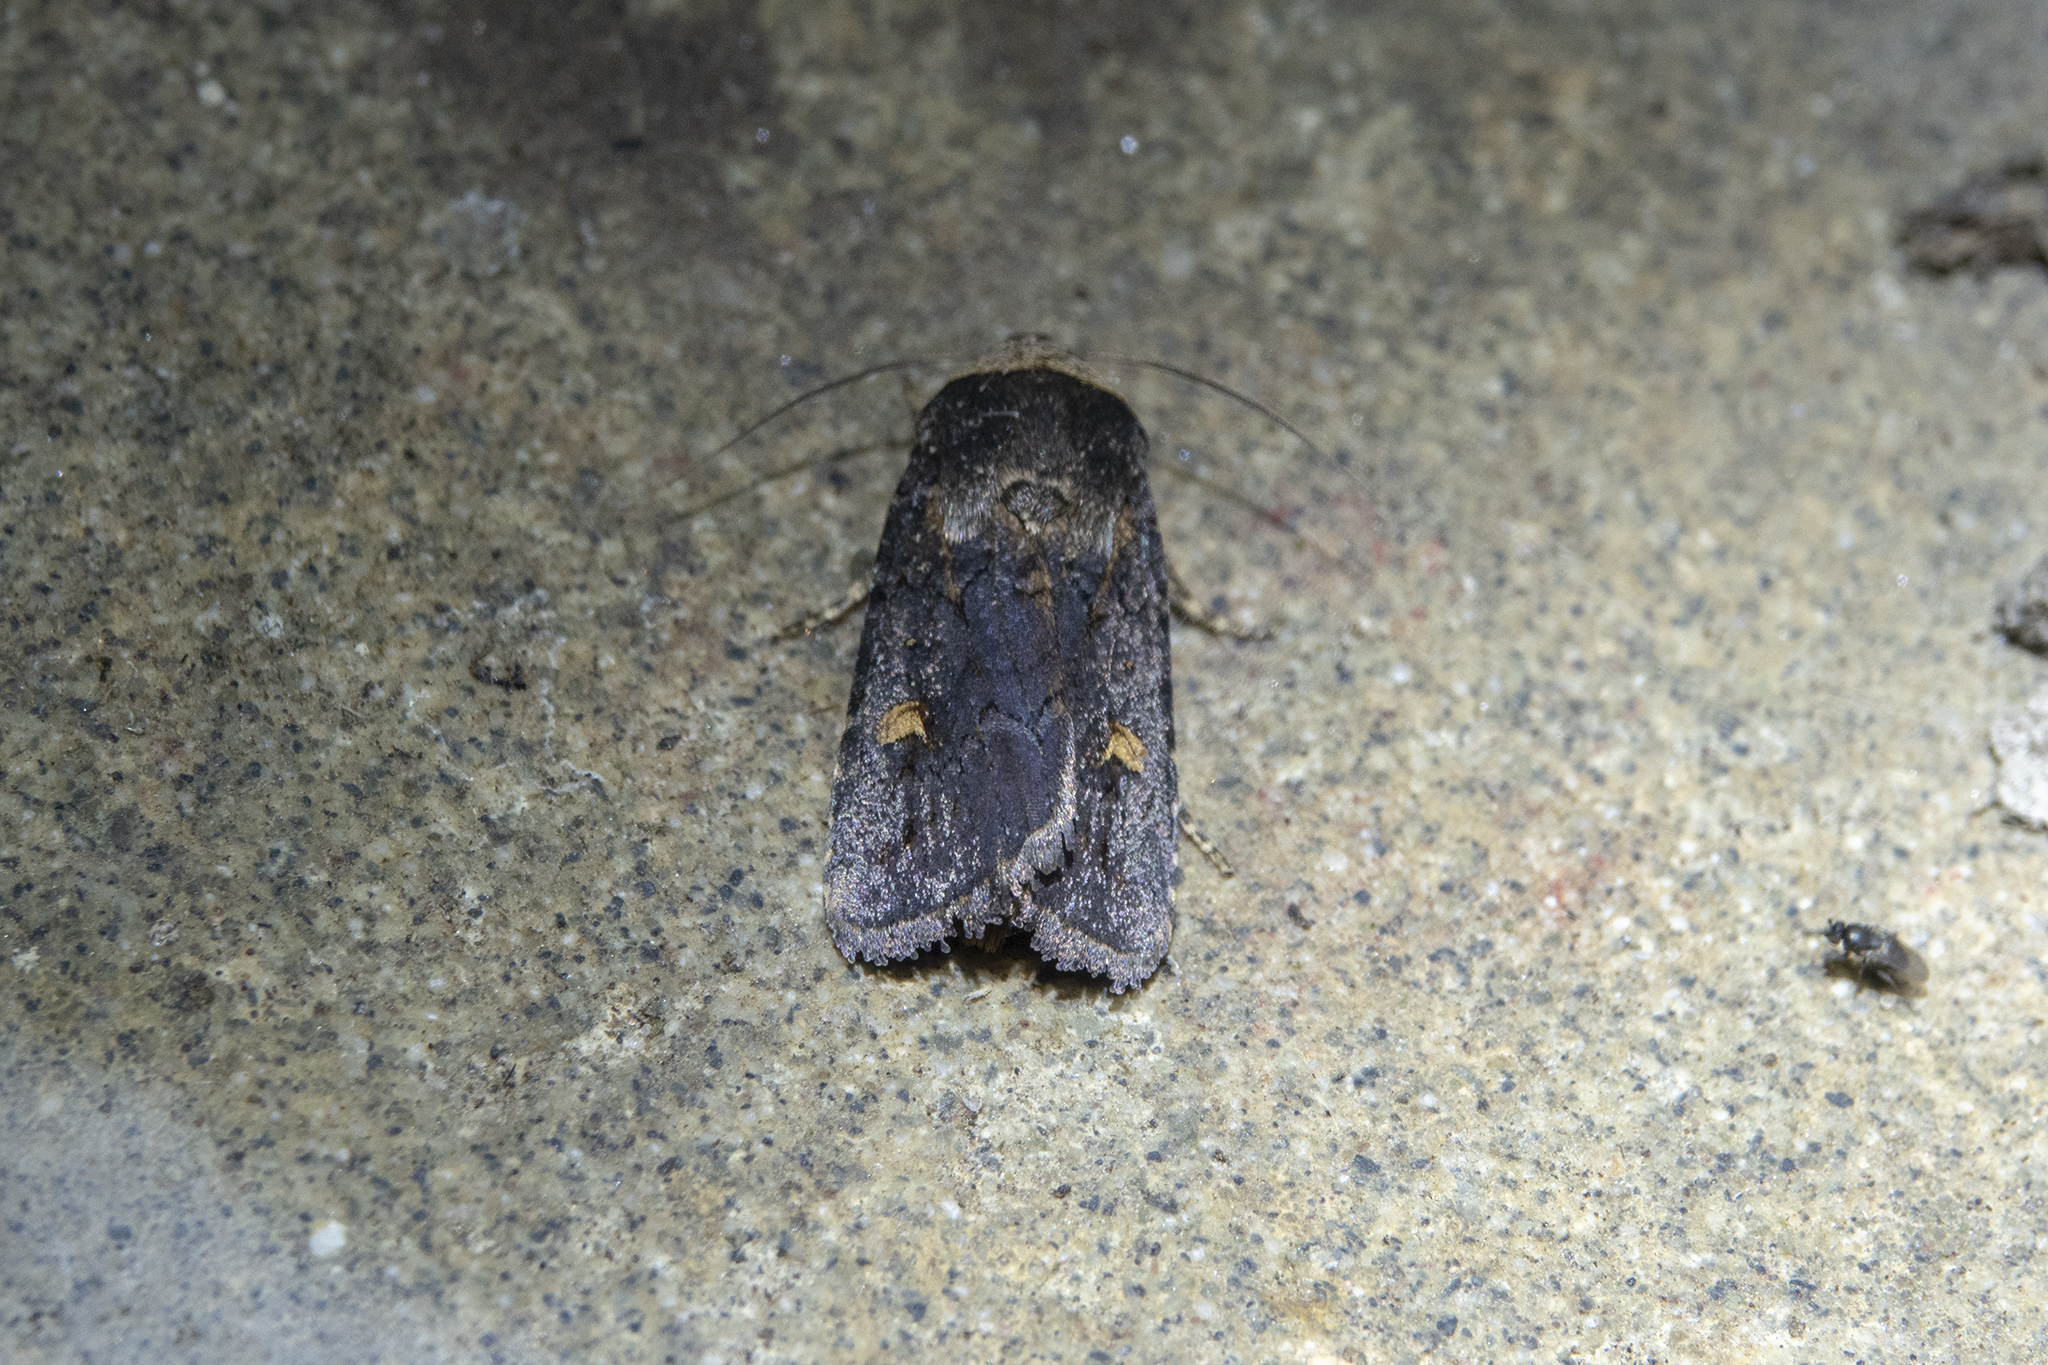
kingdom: Animalia
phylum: Arthropoda
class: Insecta
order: Lepidoptera
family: Noctuidae
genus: Proteuxoa
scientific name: Proteuxoa tetronycha
